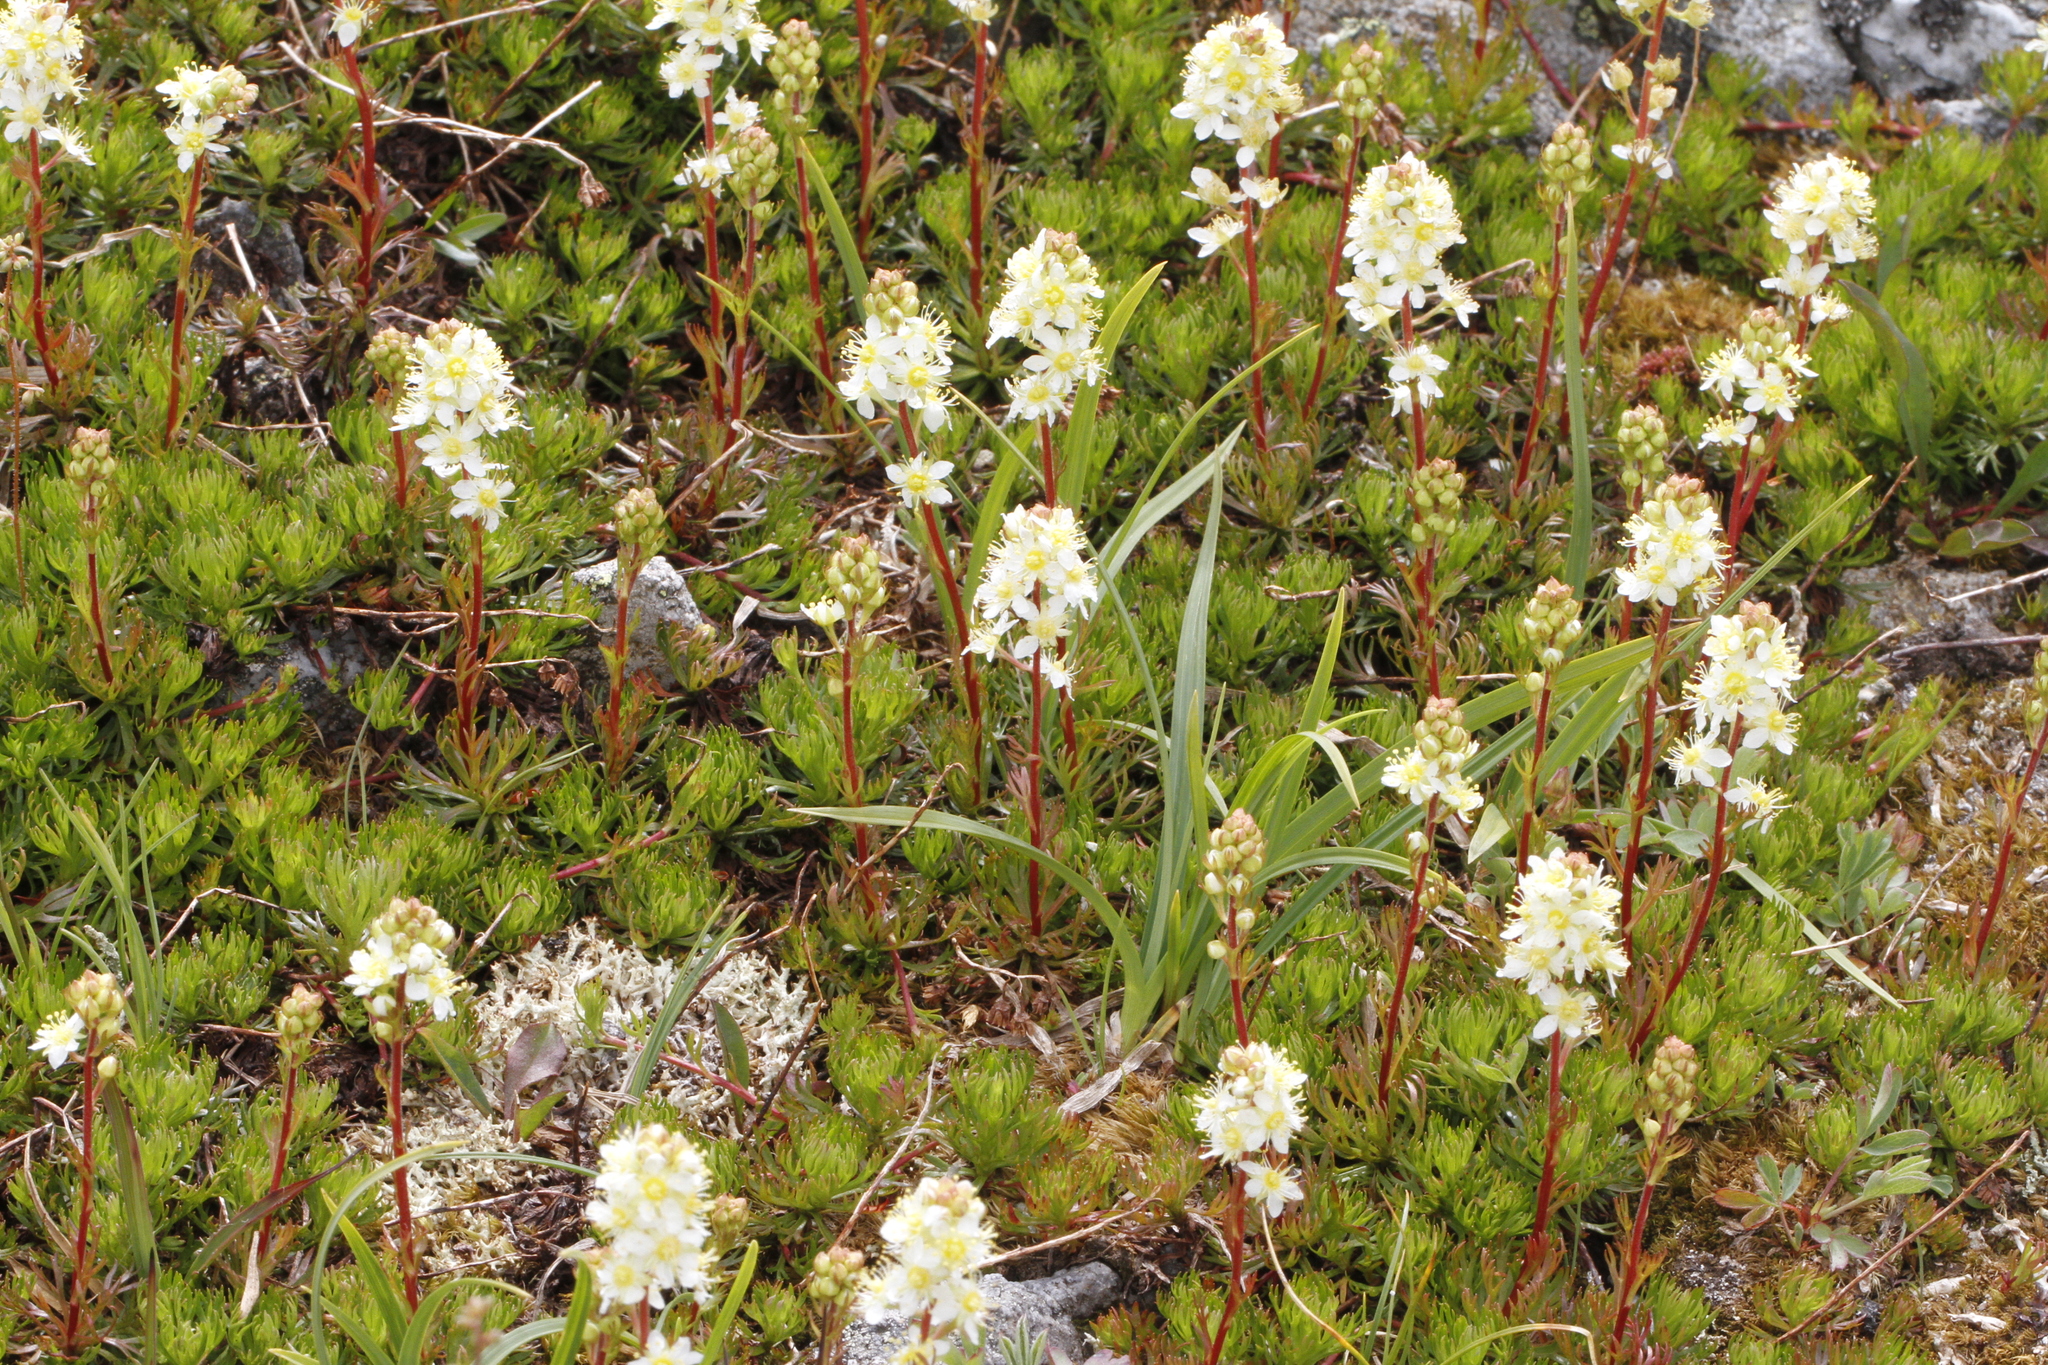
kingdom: Plantae
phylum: Tracheophyta
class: Magnoliopsida
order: Rosales
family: Rosaceae
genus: Luetkea
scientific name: Luetkea pectinata
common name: Partridgefoot
